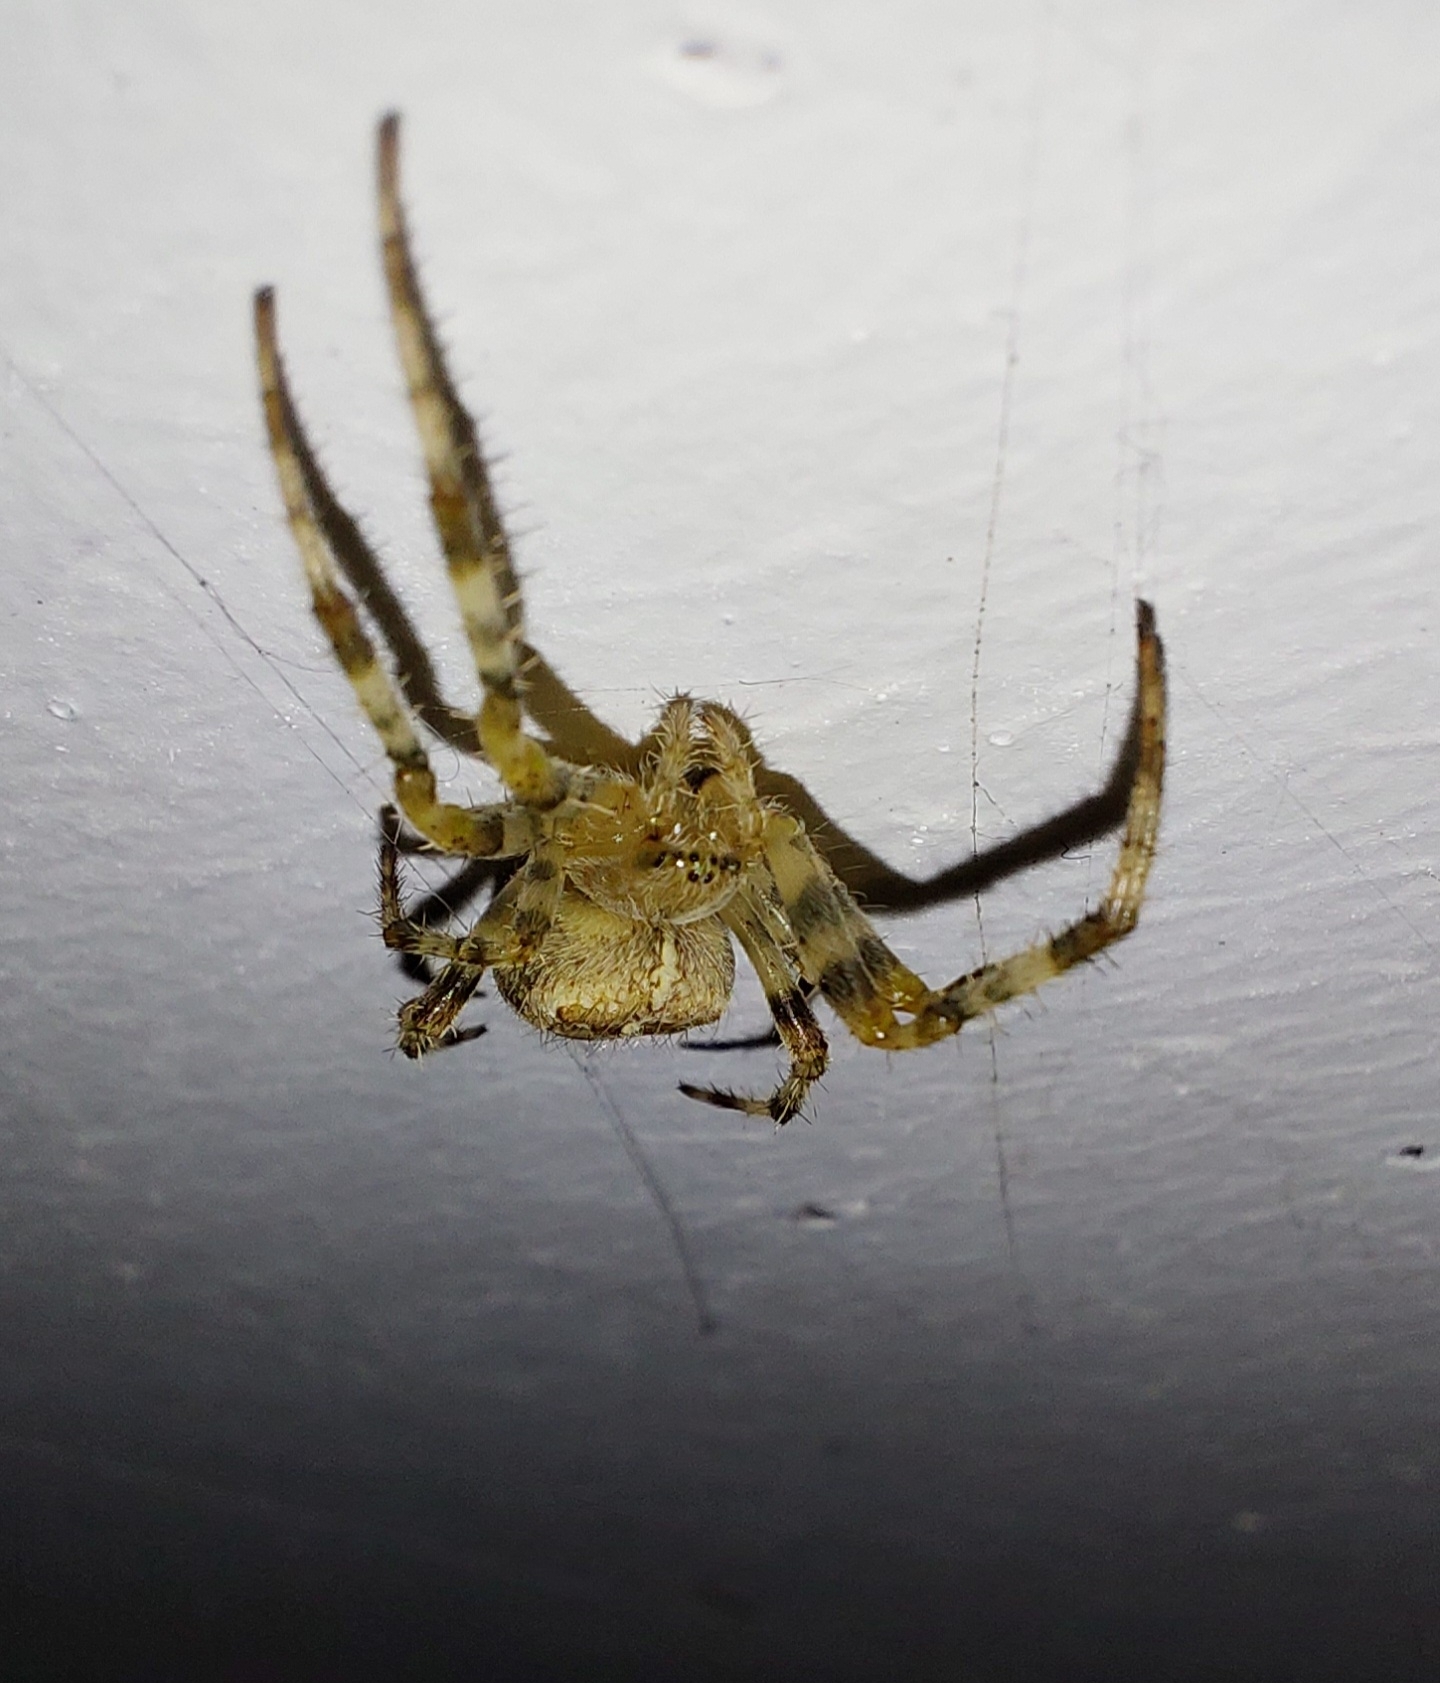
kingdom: Animalia
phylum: Arthropoda
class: Arachnida
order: Araneae
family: Araneidae
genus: Araneus
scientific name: Araneus diadematus
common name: Cross orbweaver
